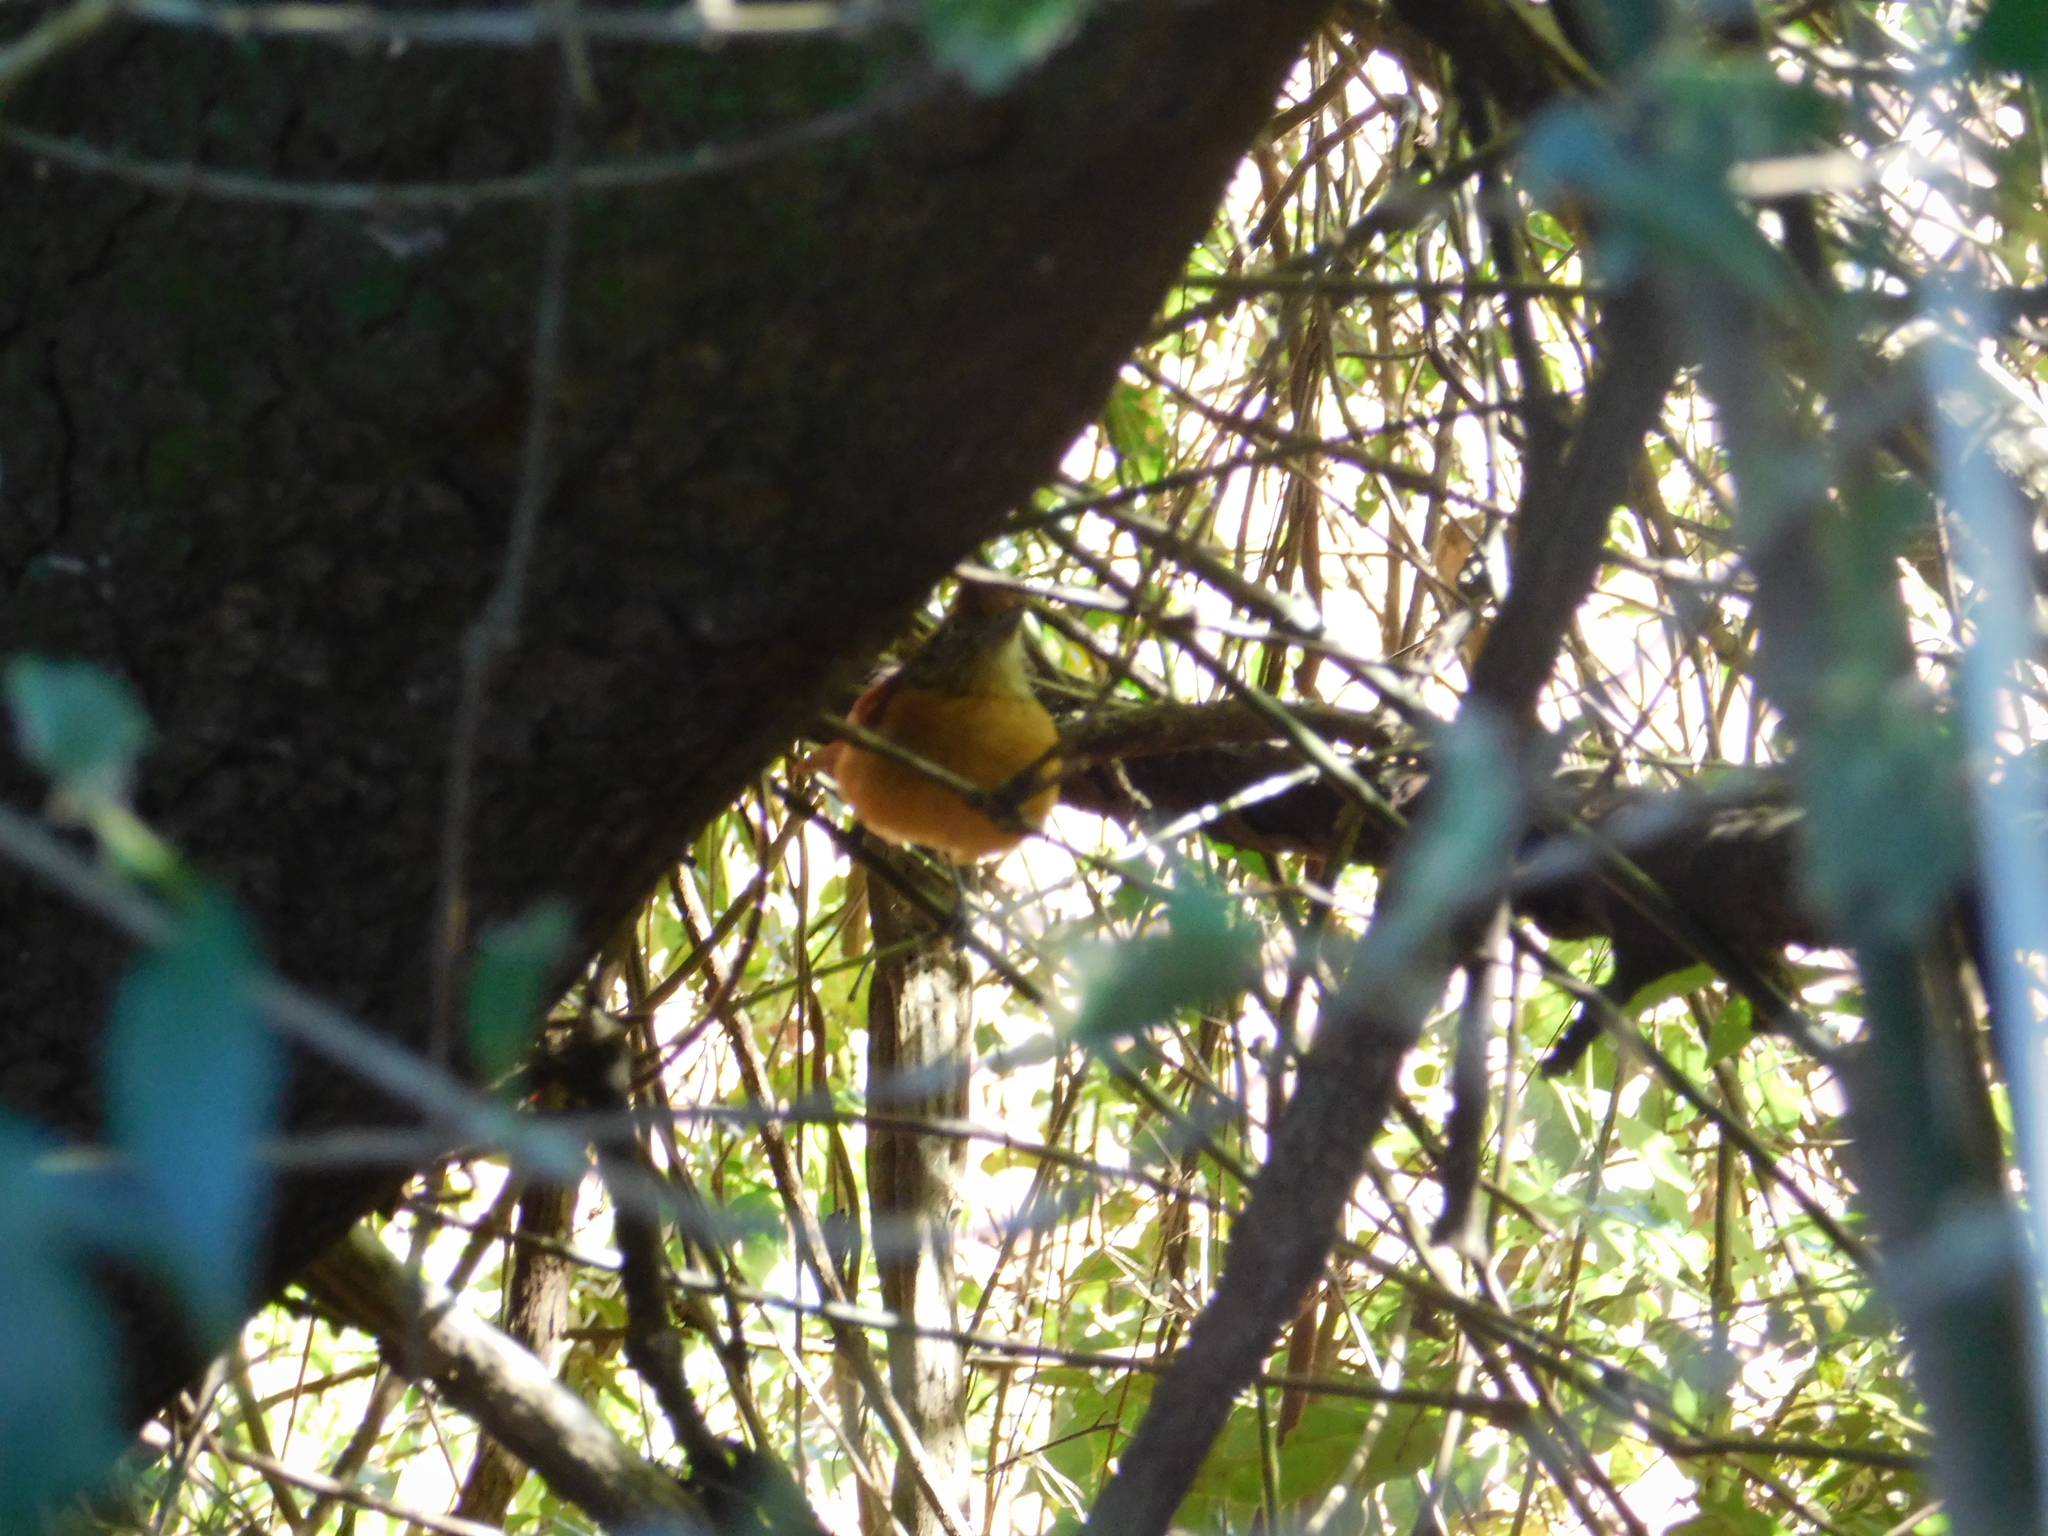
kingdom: Animalia
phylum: Chordata
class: Aves
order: Passeriformes
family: Thamnophilidae
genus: Thamnophilus
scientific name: Thamnophilus doliatus
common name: Barred antshrike
